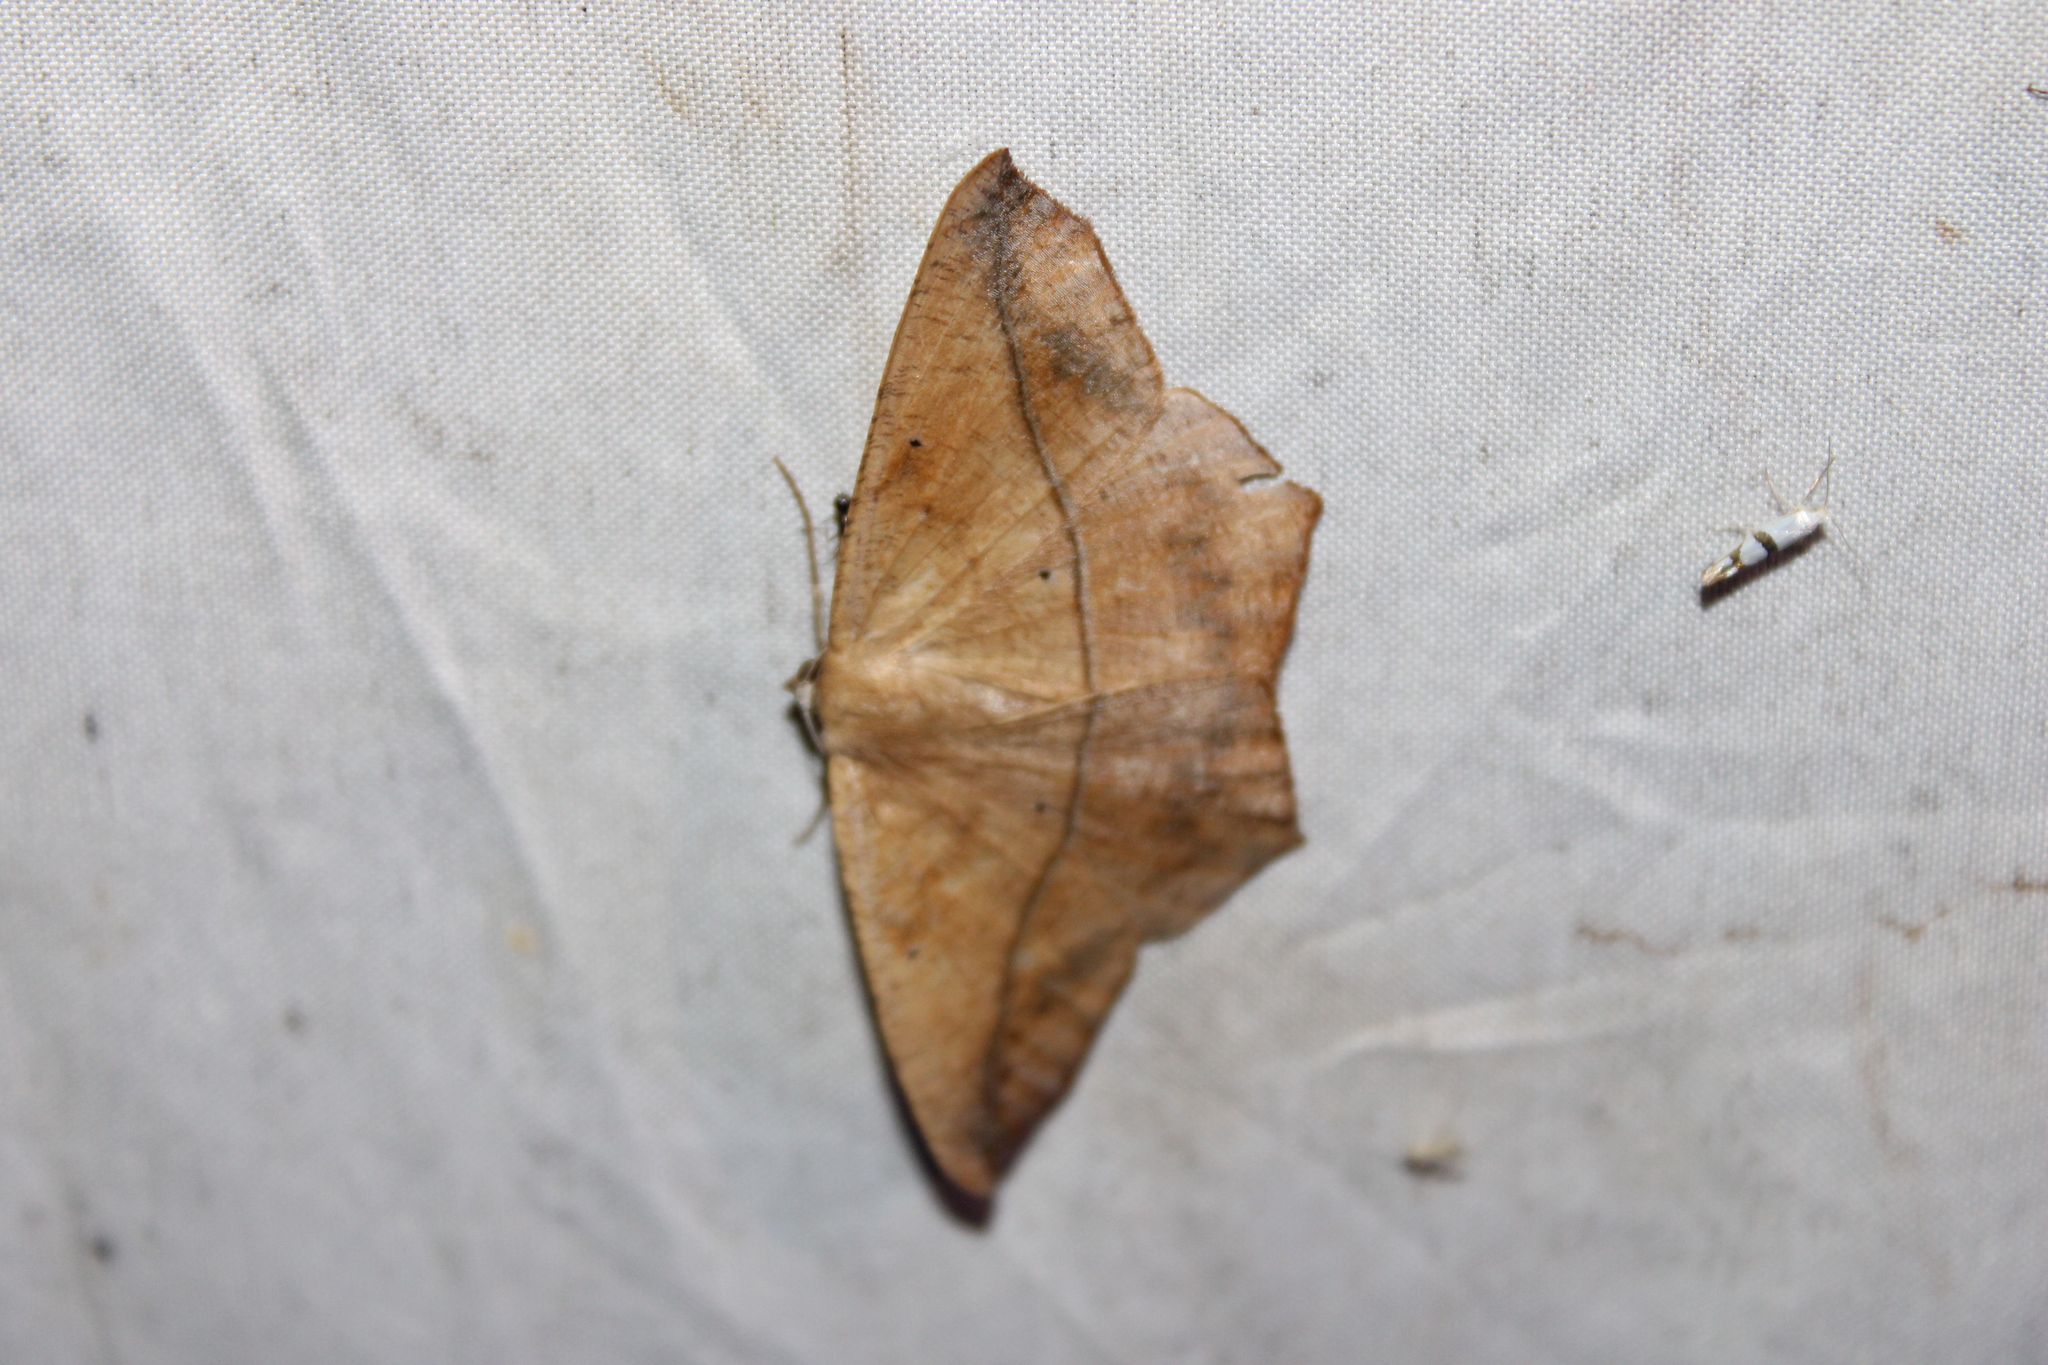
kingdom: Animalia
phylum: Arthropoda
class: Insecta
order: Lepidoptera
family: Geometridae
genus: Prochoerodes
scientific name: Prochoerodes lineola
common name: Large maple spanworm
